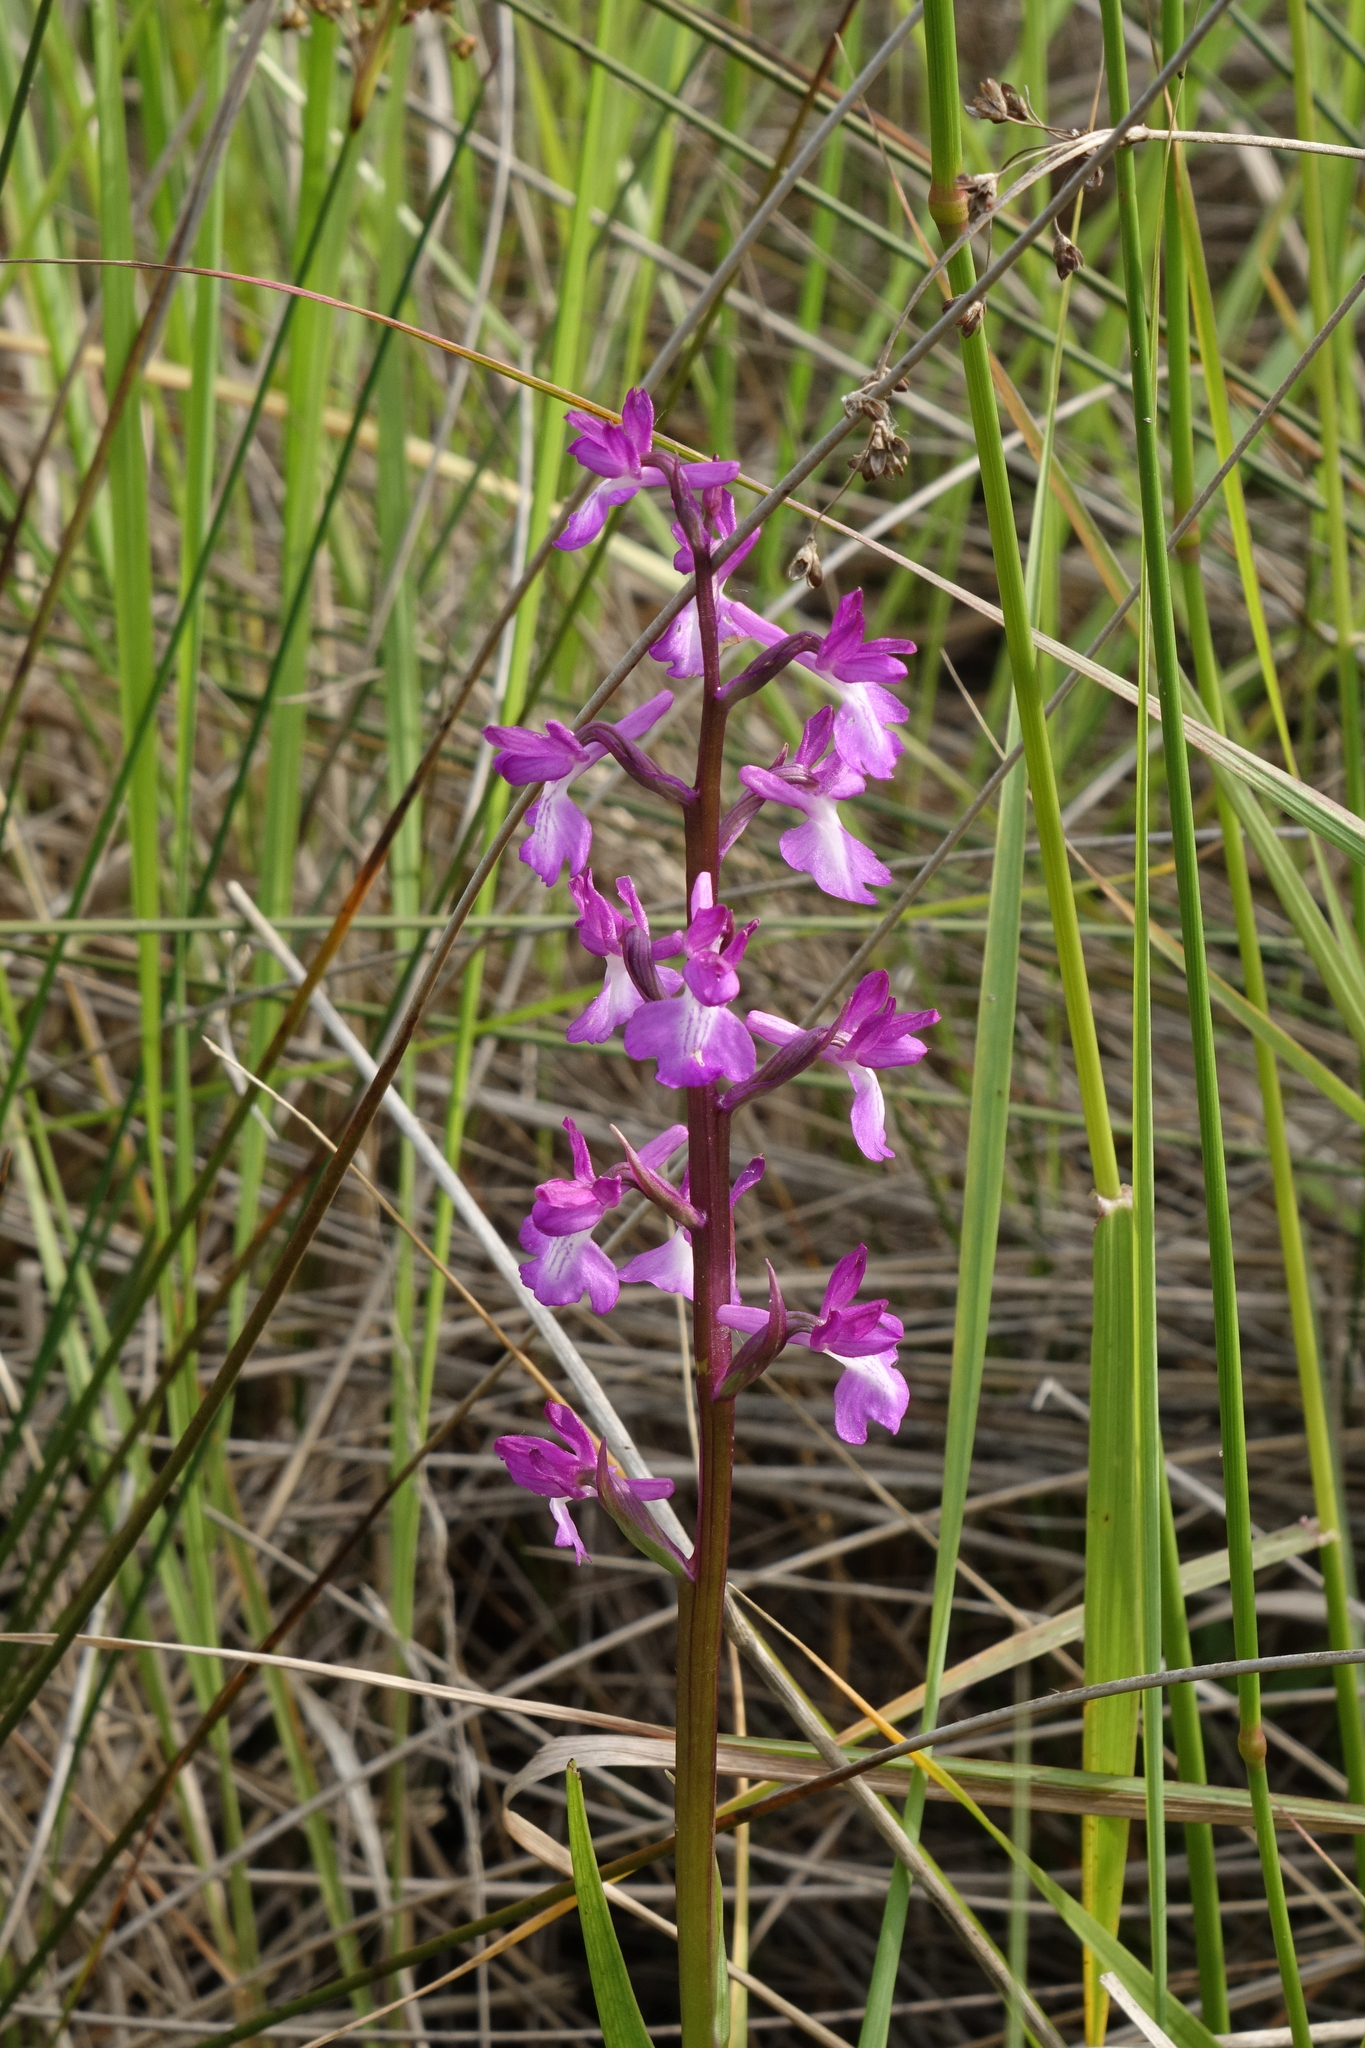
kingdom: Plantae
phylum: Tracheophyta
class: Liliopsida
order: Asparagales
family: Orchidaceae
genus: Anacamptis
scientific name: Anacamptis palustris
